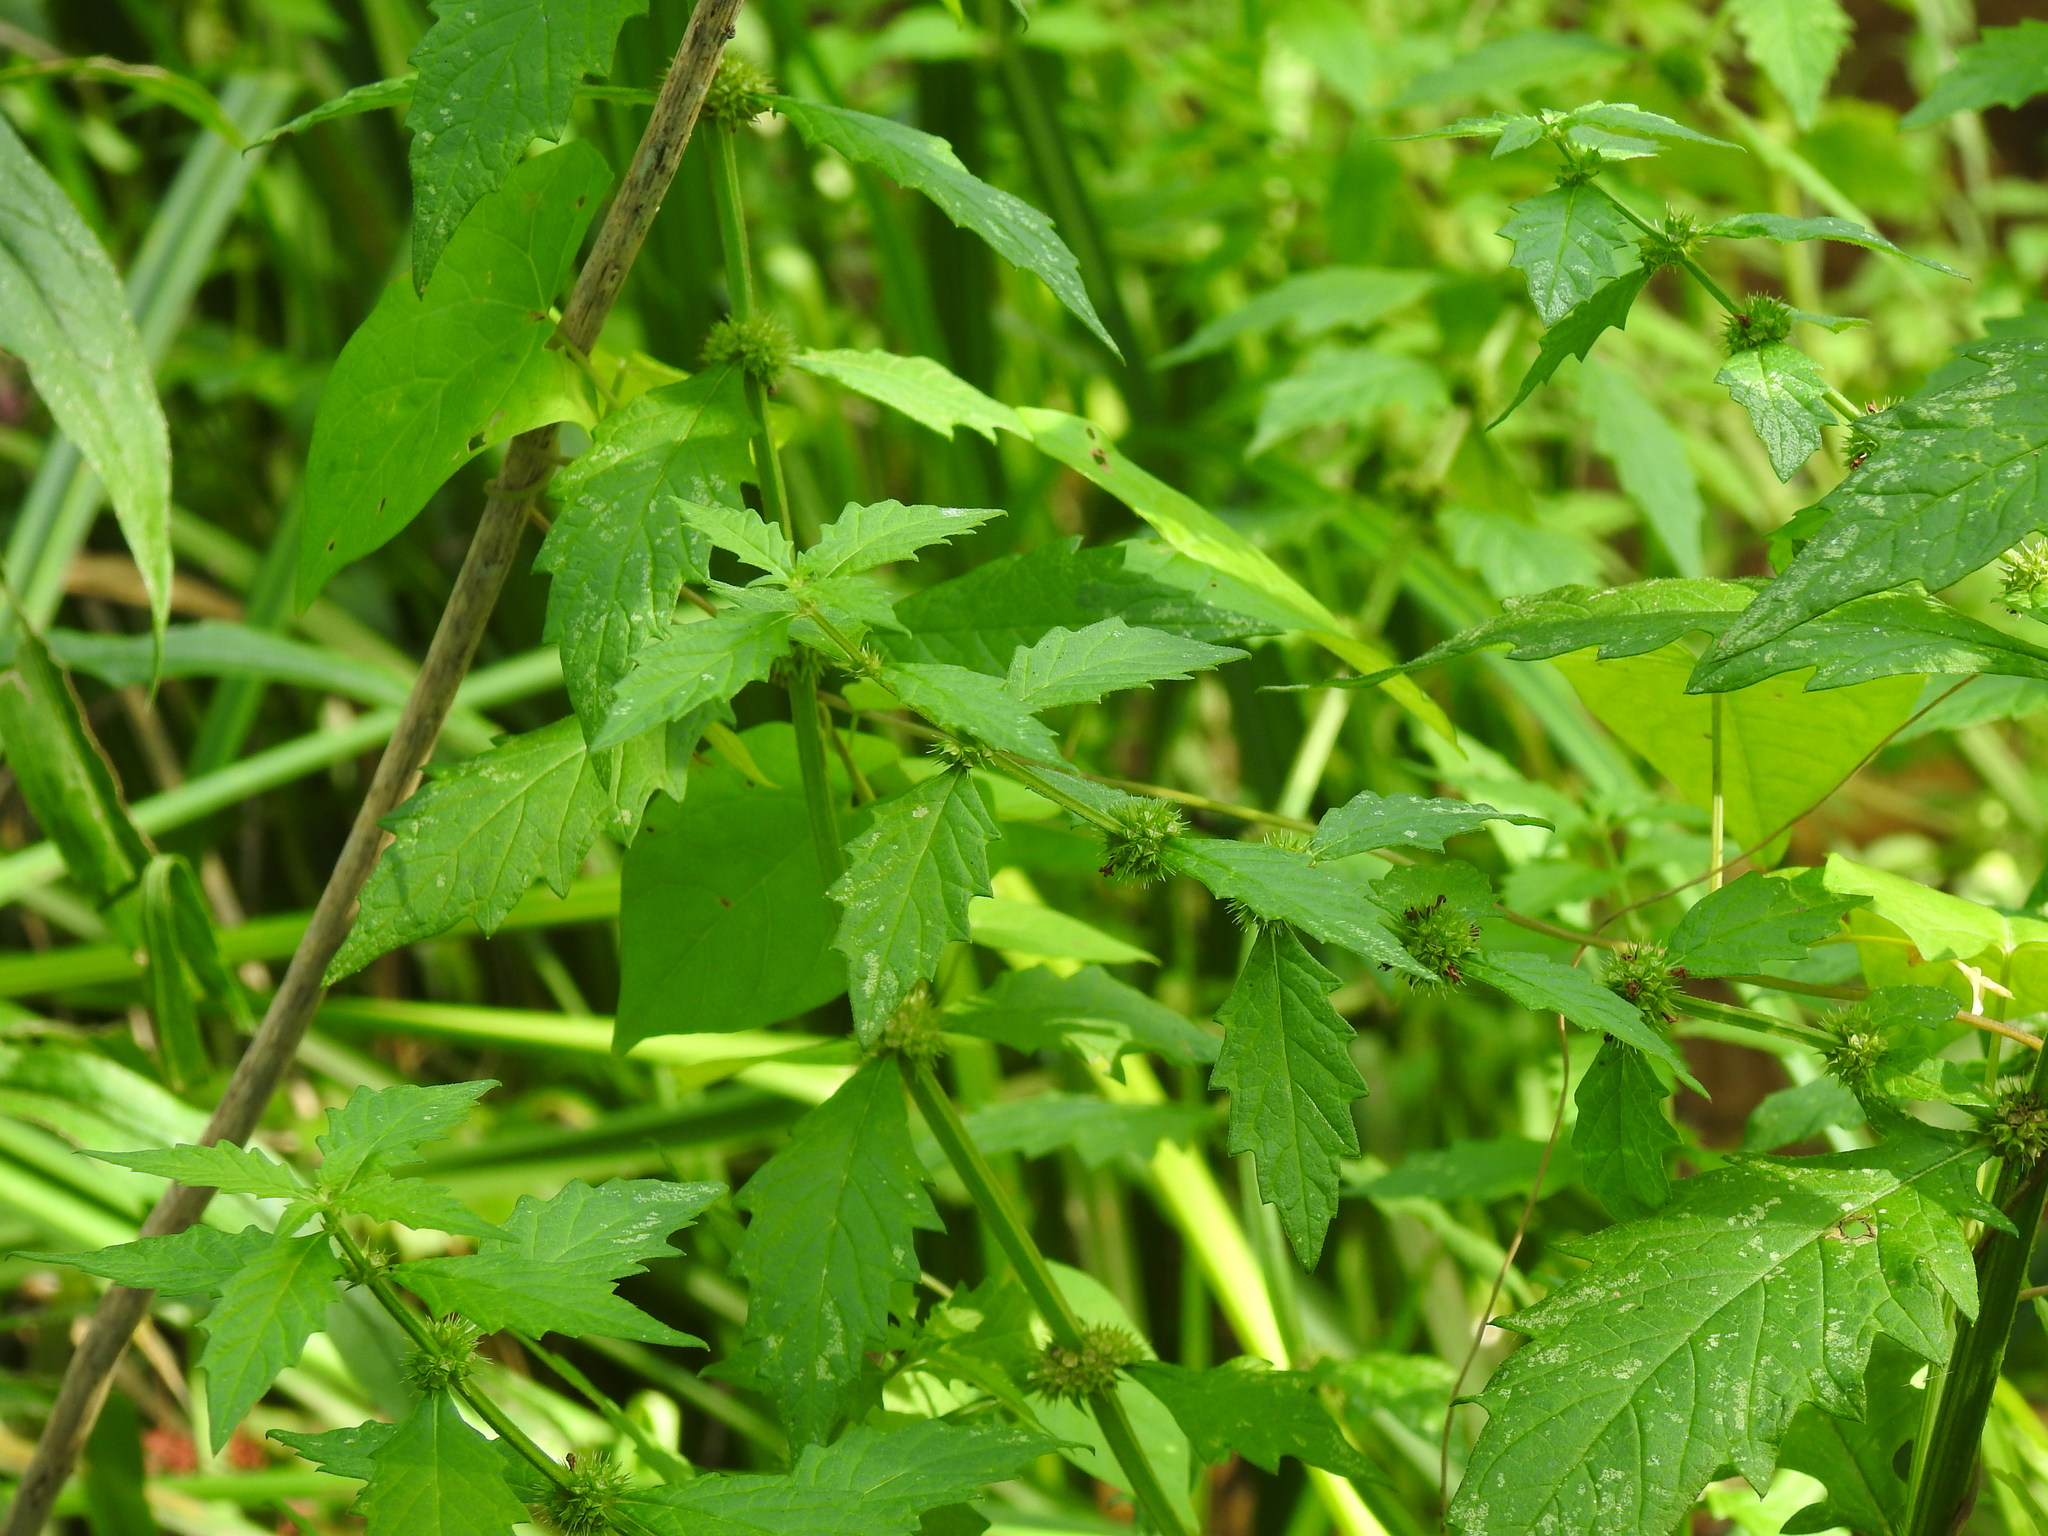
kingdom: Plantae
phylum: Tracheophyta
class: Magnoliopsida
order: Lamiales
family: Lamiaceae
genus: Lycopus
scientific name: Lycopus europaeus
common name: European bugleweed
